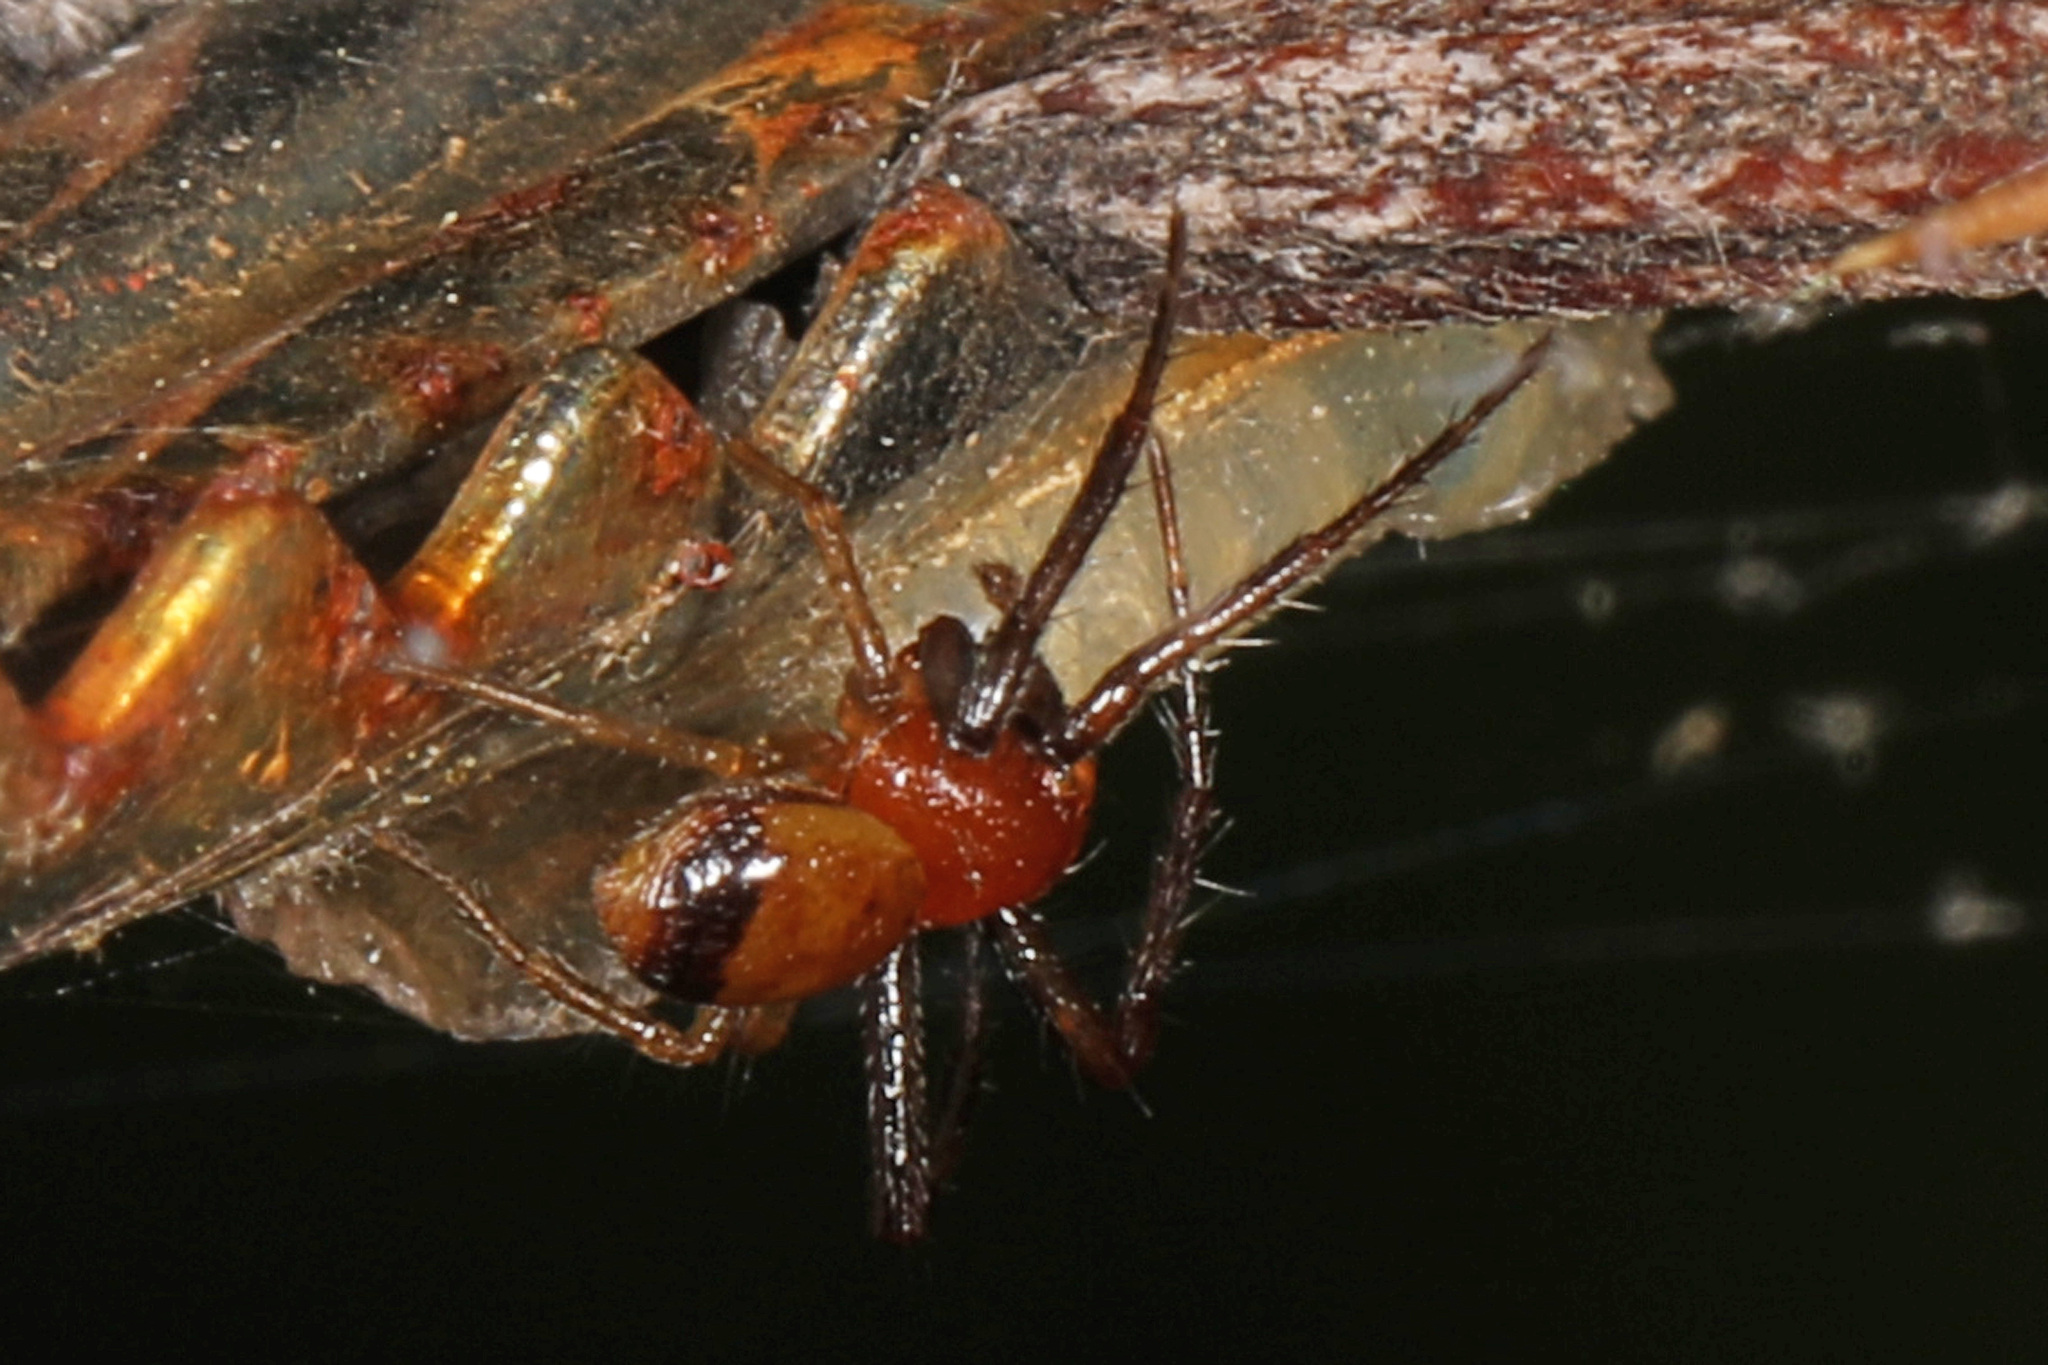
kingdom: Animalia
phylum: Arthropoda
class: Arachnida
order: Araneae
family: Thomisidae
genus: Synema
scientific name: Synema parvulum
